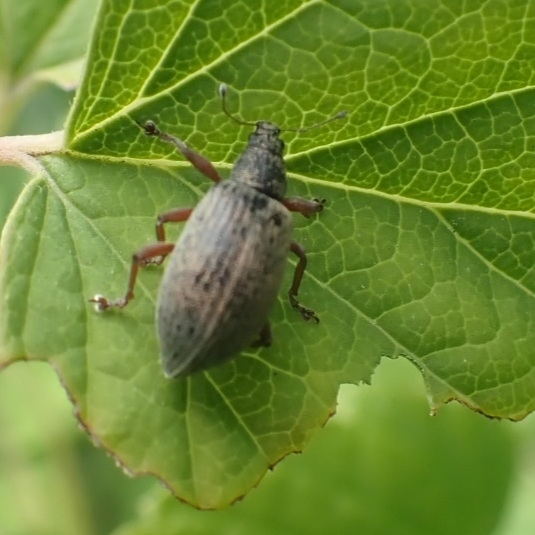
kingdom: Animalia
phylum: Arthropoda
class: Insecta
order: Coleoptera
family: Curculionidae
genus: Polydrusus
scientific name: Polydrusus mollis
